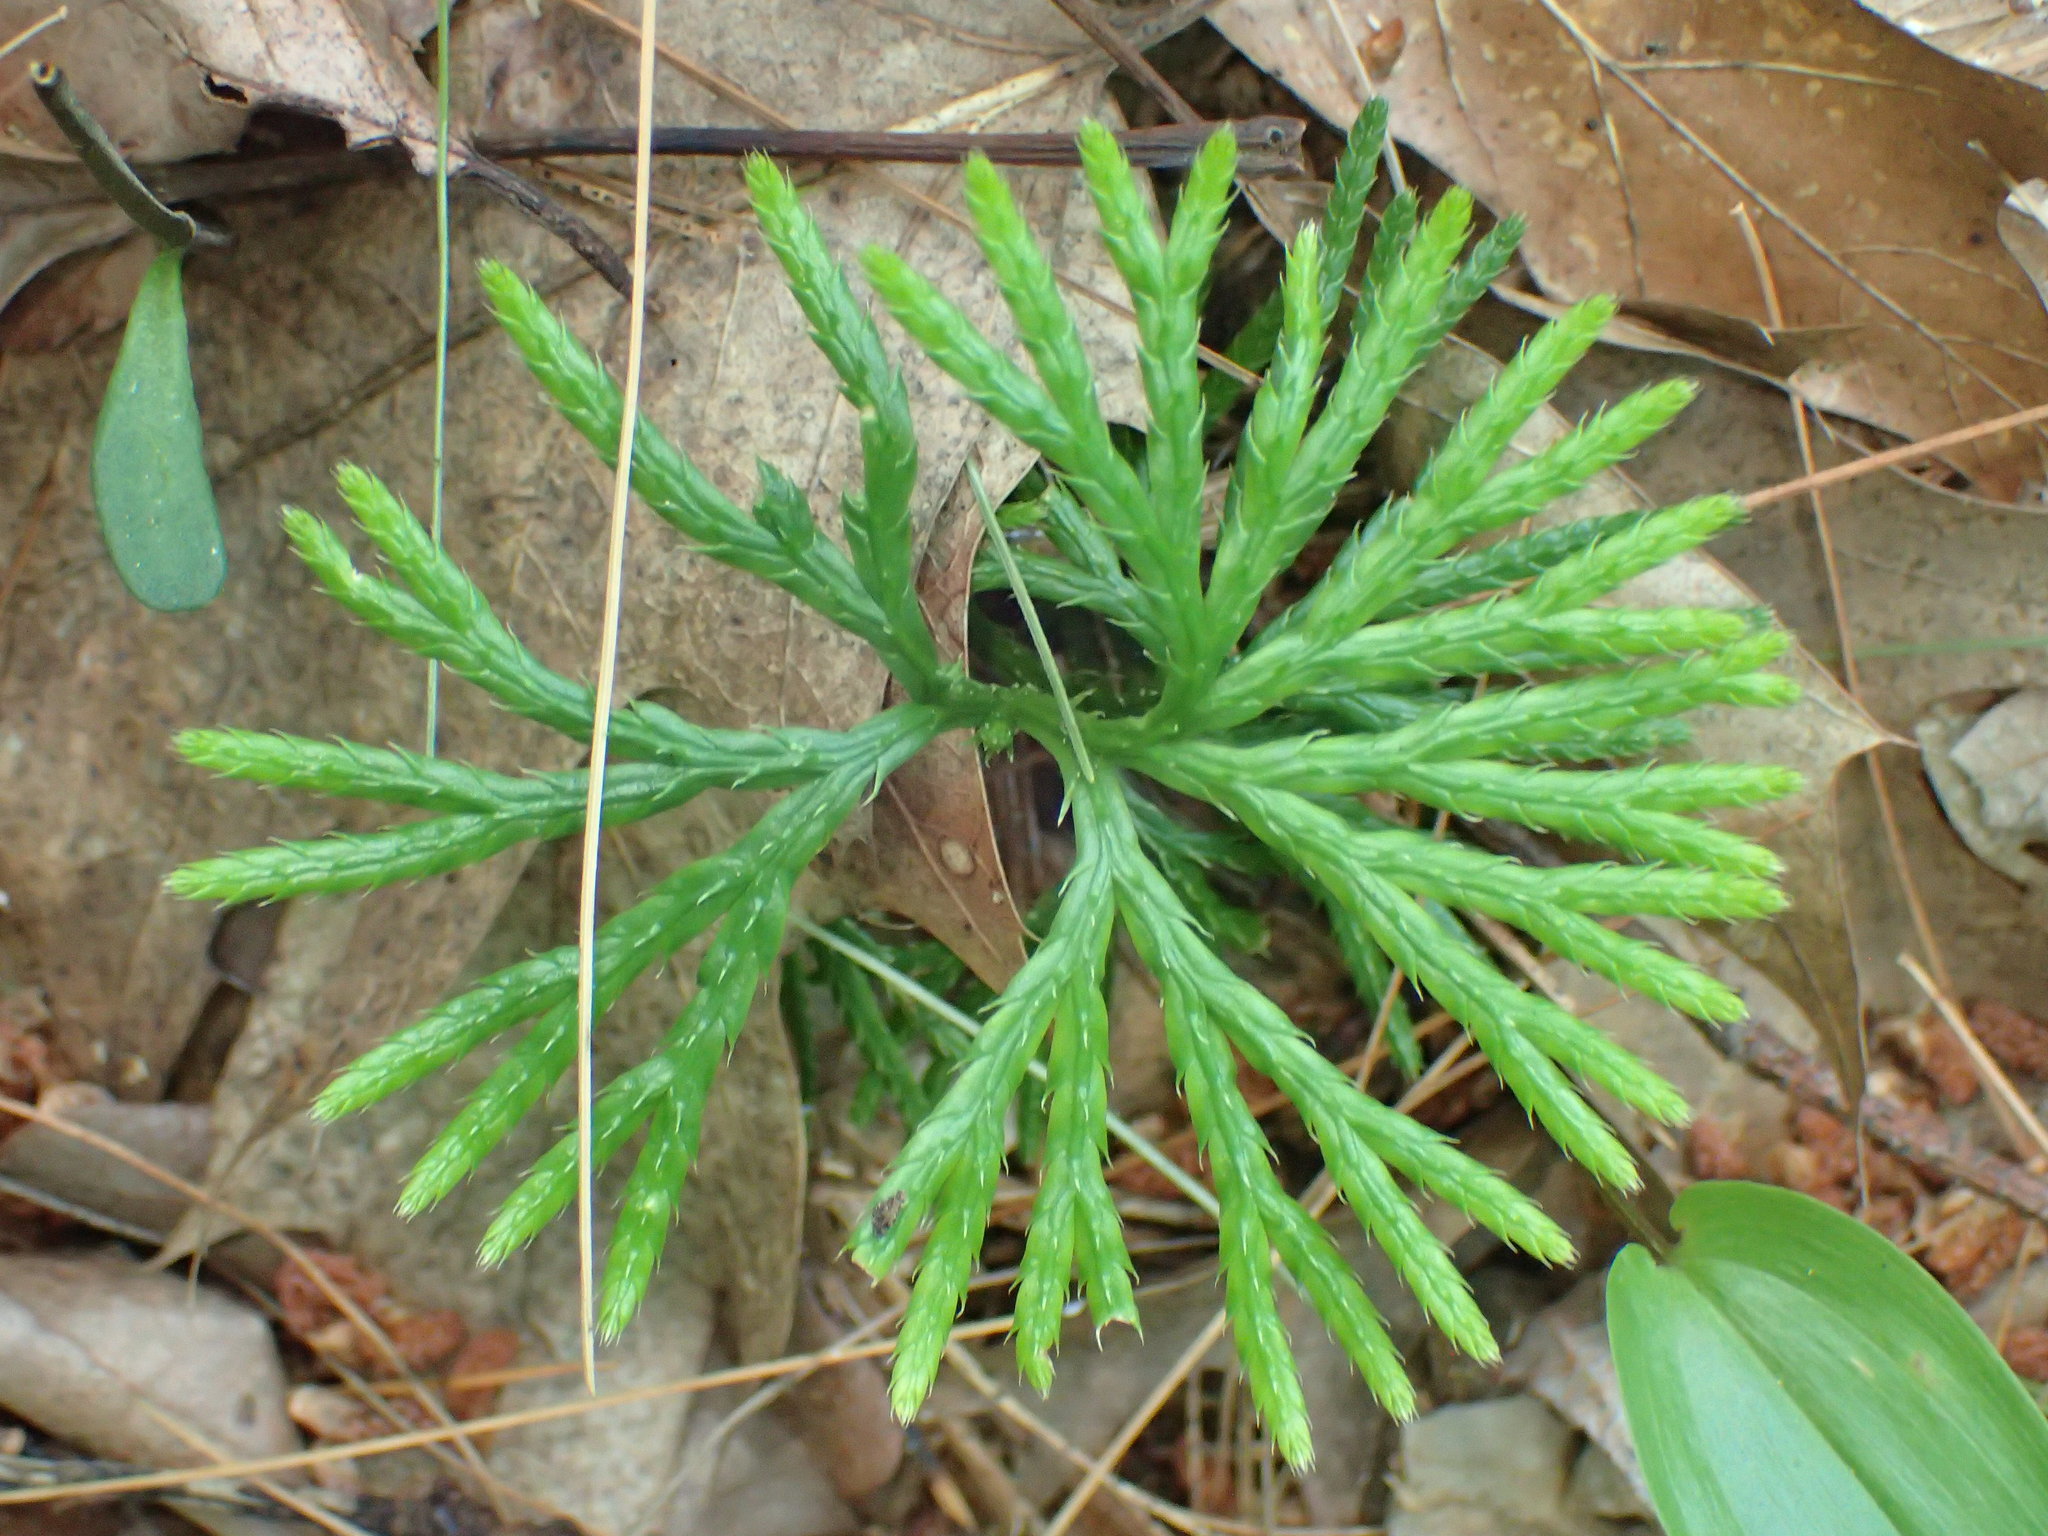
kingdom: Plantae
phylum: Tracheophyta
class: Lycopodiopsida
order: Lycopodiales
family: Lycopodiaceae
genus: Diphasiastrum
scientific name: Diphasiastrum digitatum
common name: Southern running-pine
